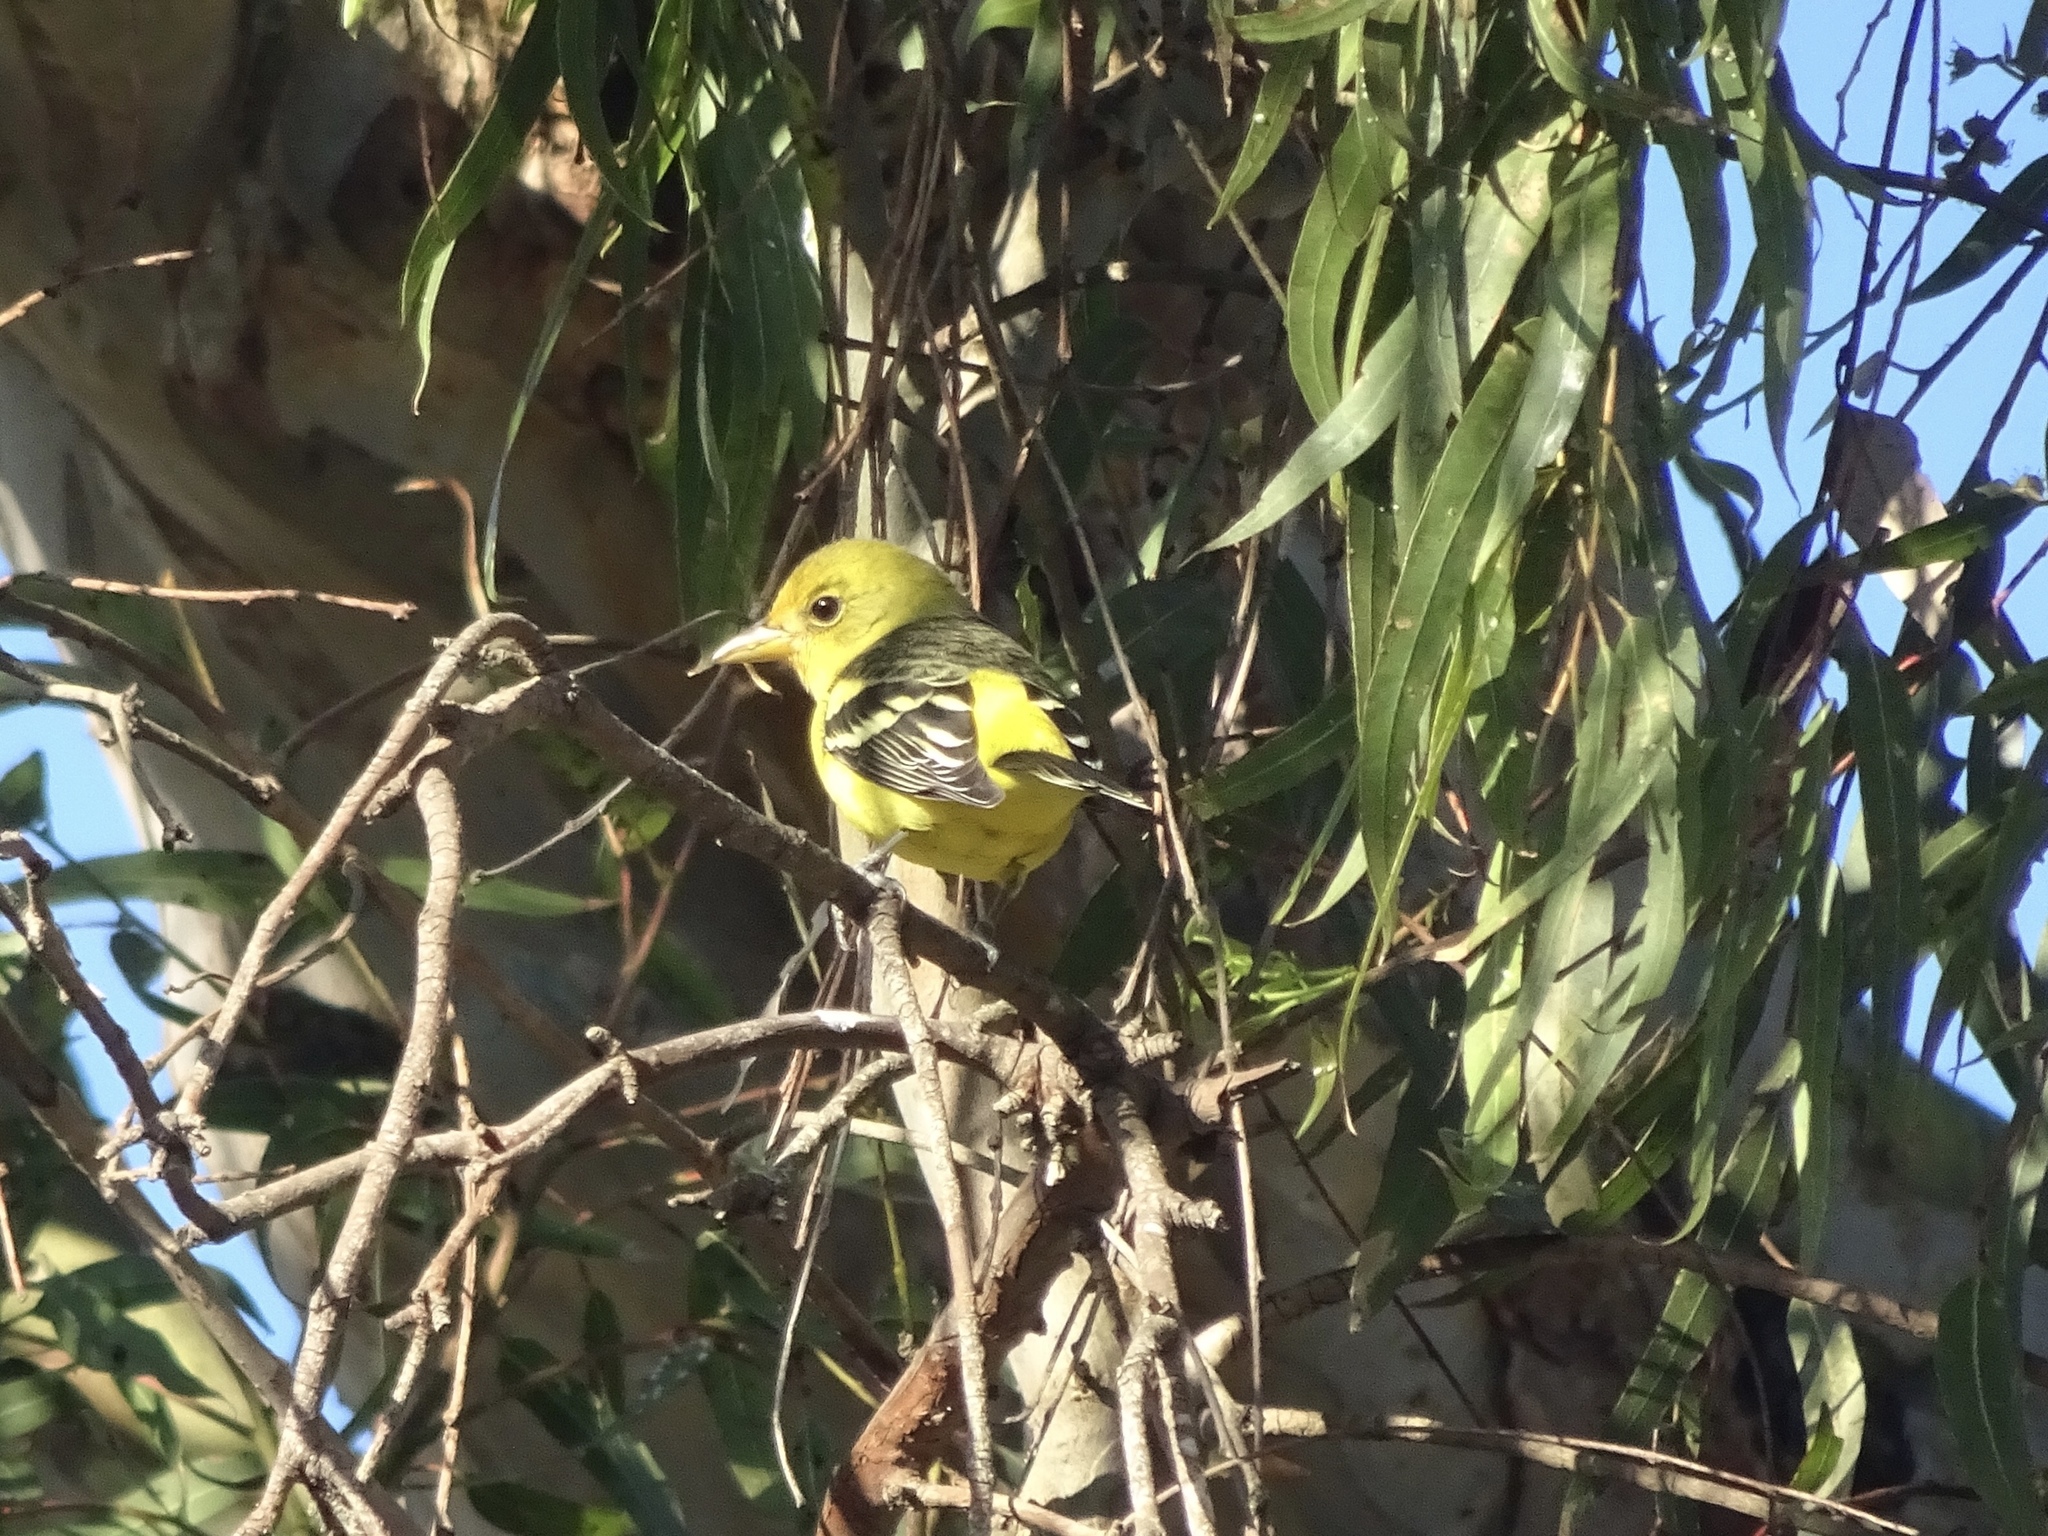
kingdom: Animalia
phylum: Chordata
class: Aves
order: Passeriformes
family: Cardinalidae
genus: Piranga
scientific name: Piranga ludoviciana
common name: Western tanager
